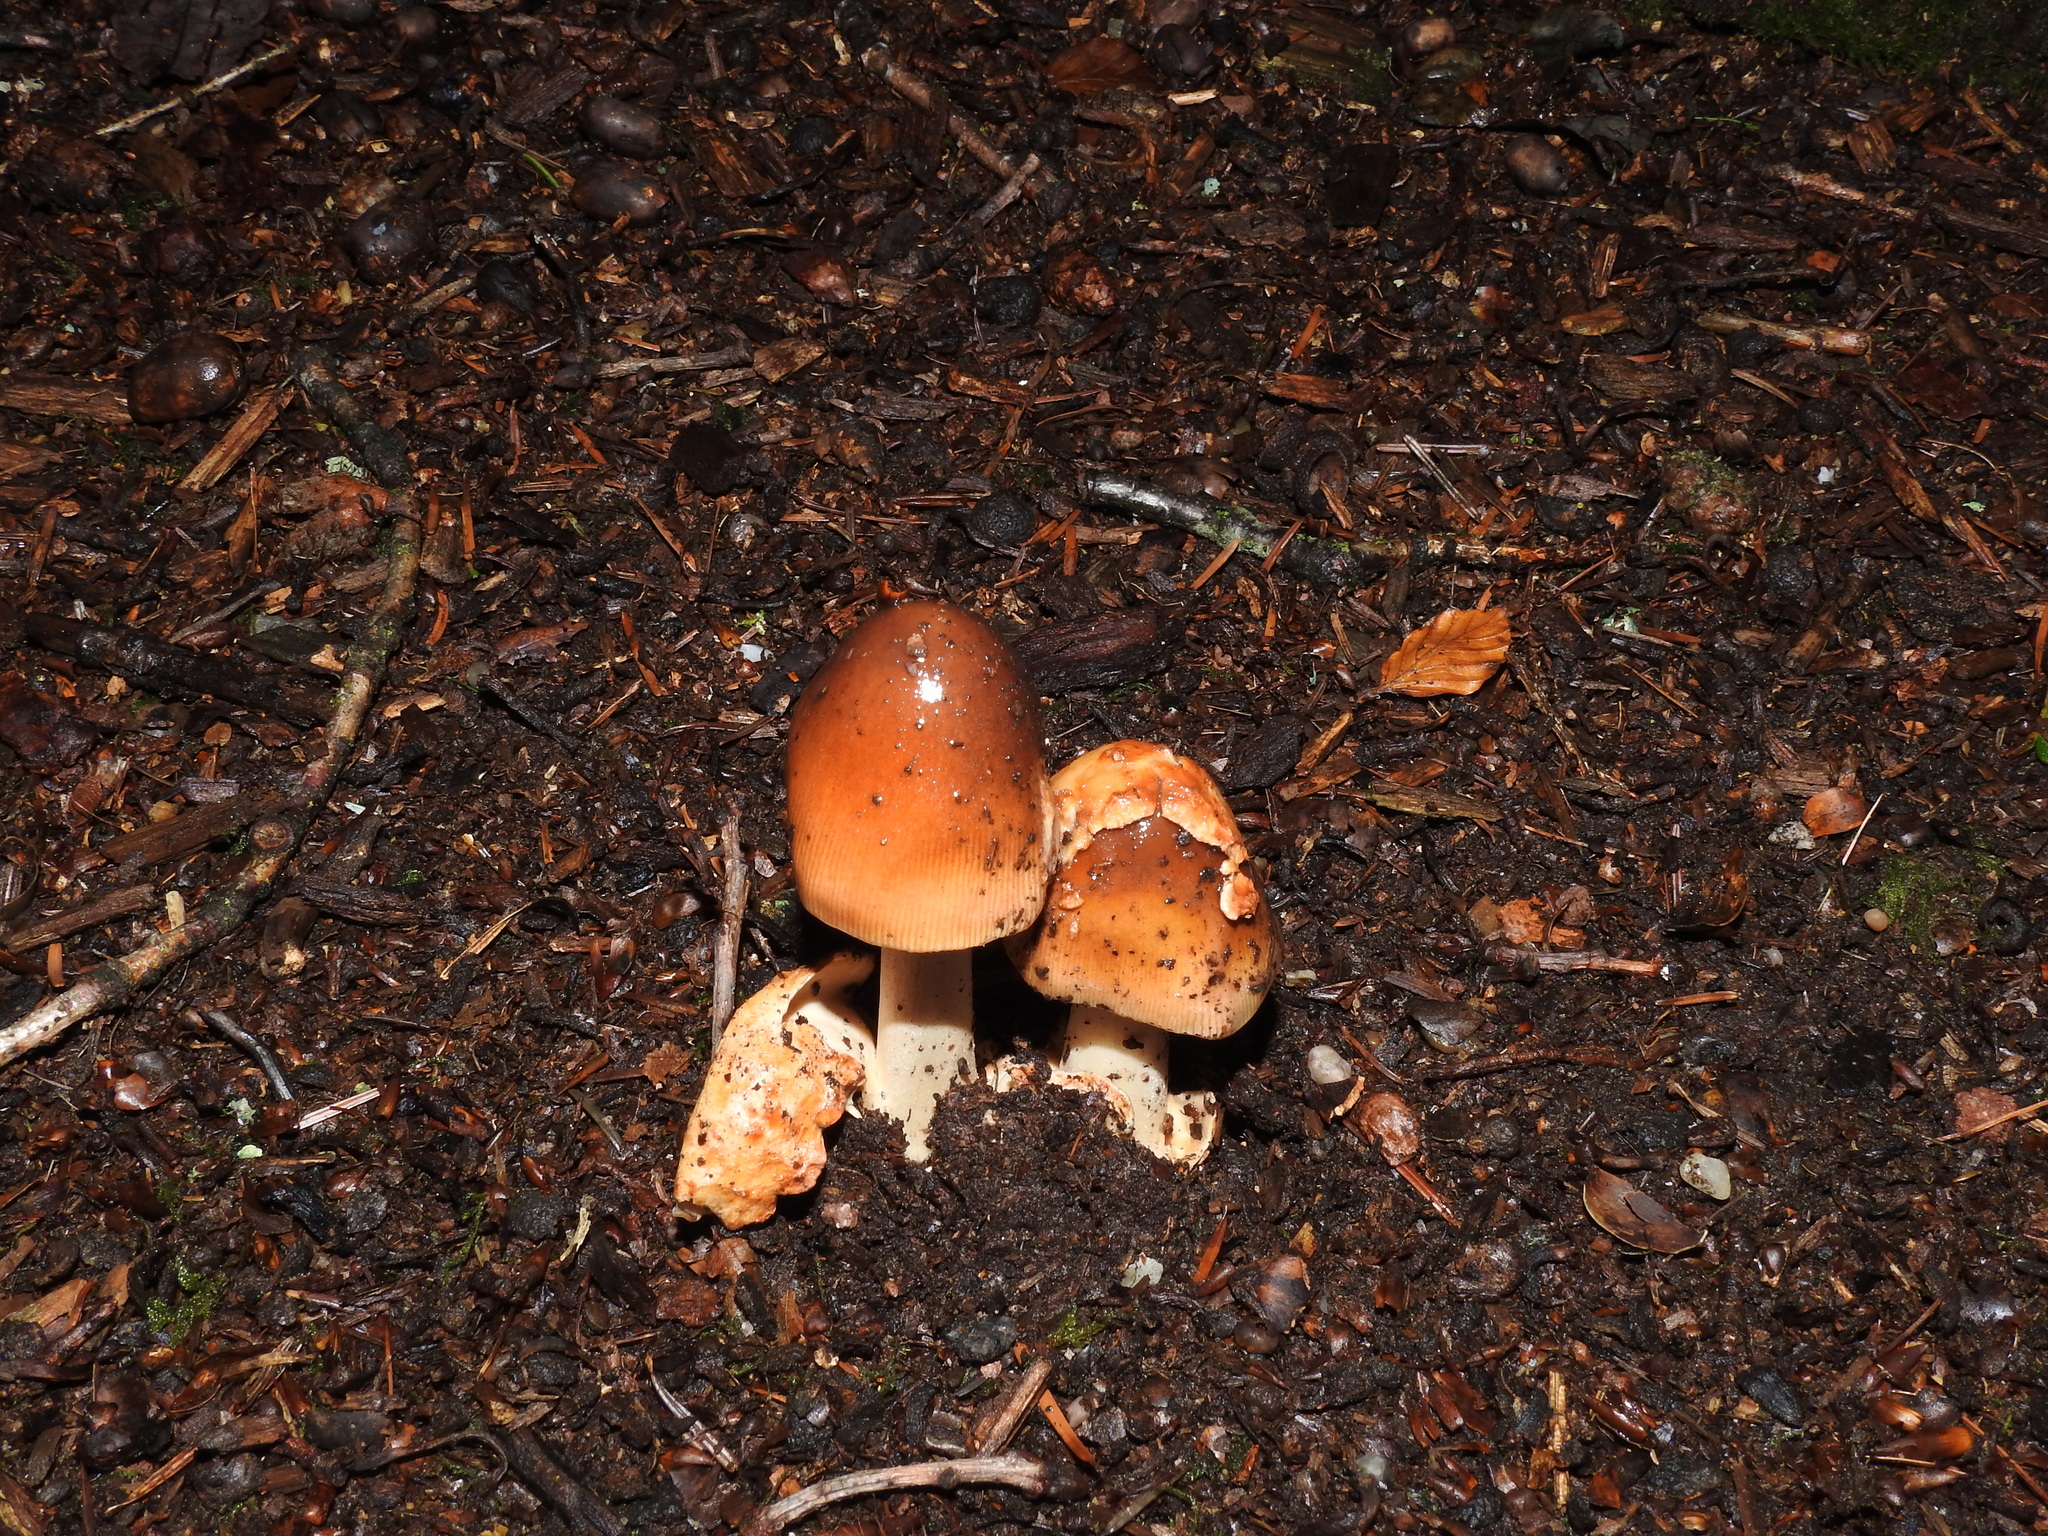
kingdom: Fungi
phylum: Basidiomycota
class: Agaricomycetes
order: Agaricales
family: Amanitaceae
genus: Amanita
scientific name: Amanita fulva
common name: Tawny grisette
